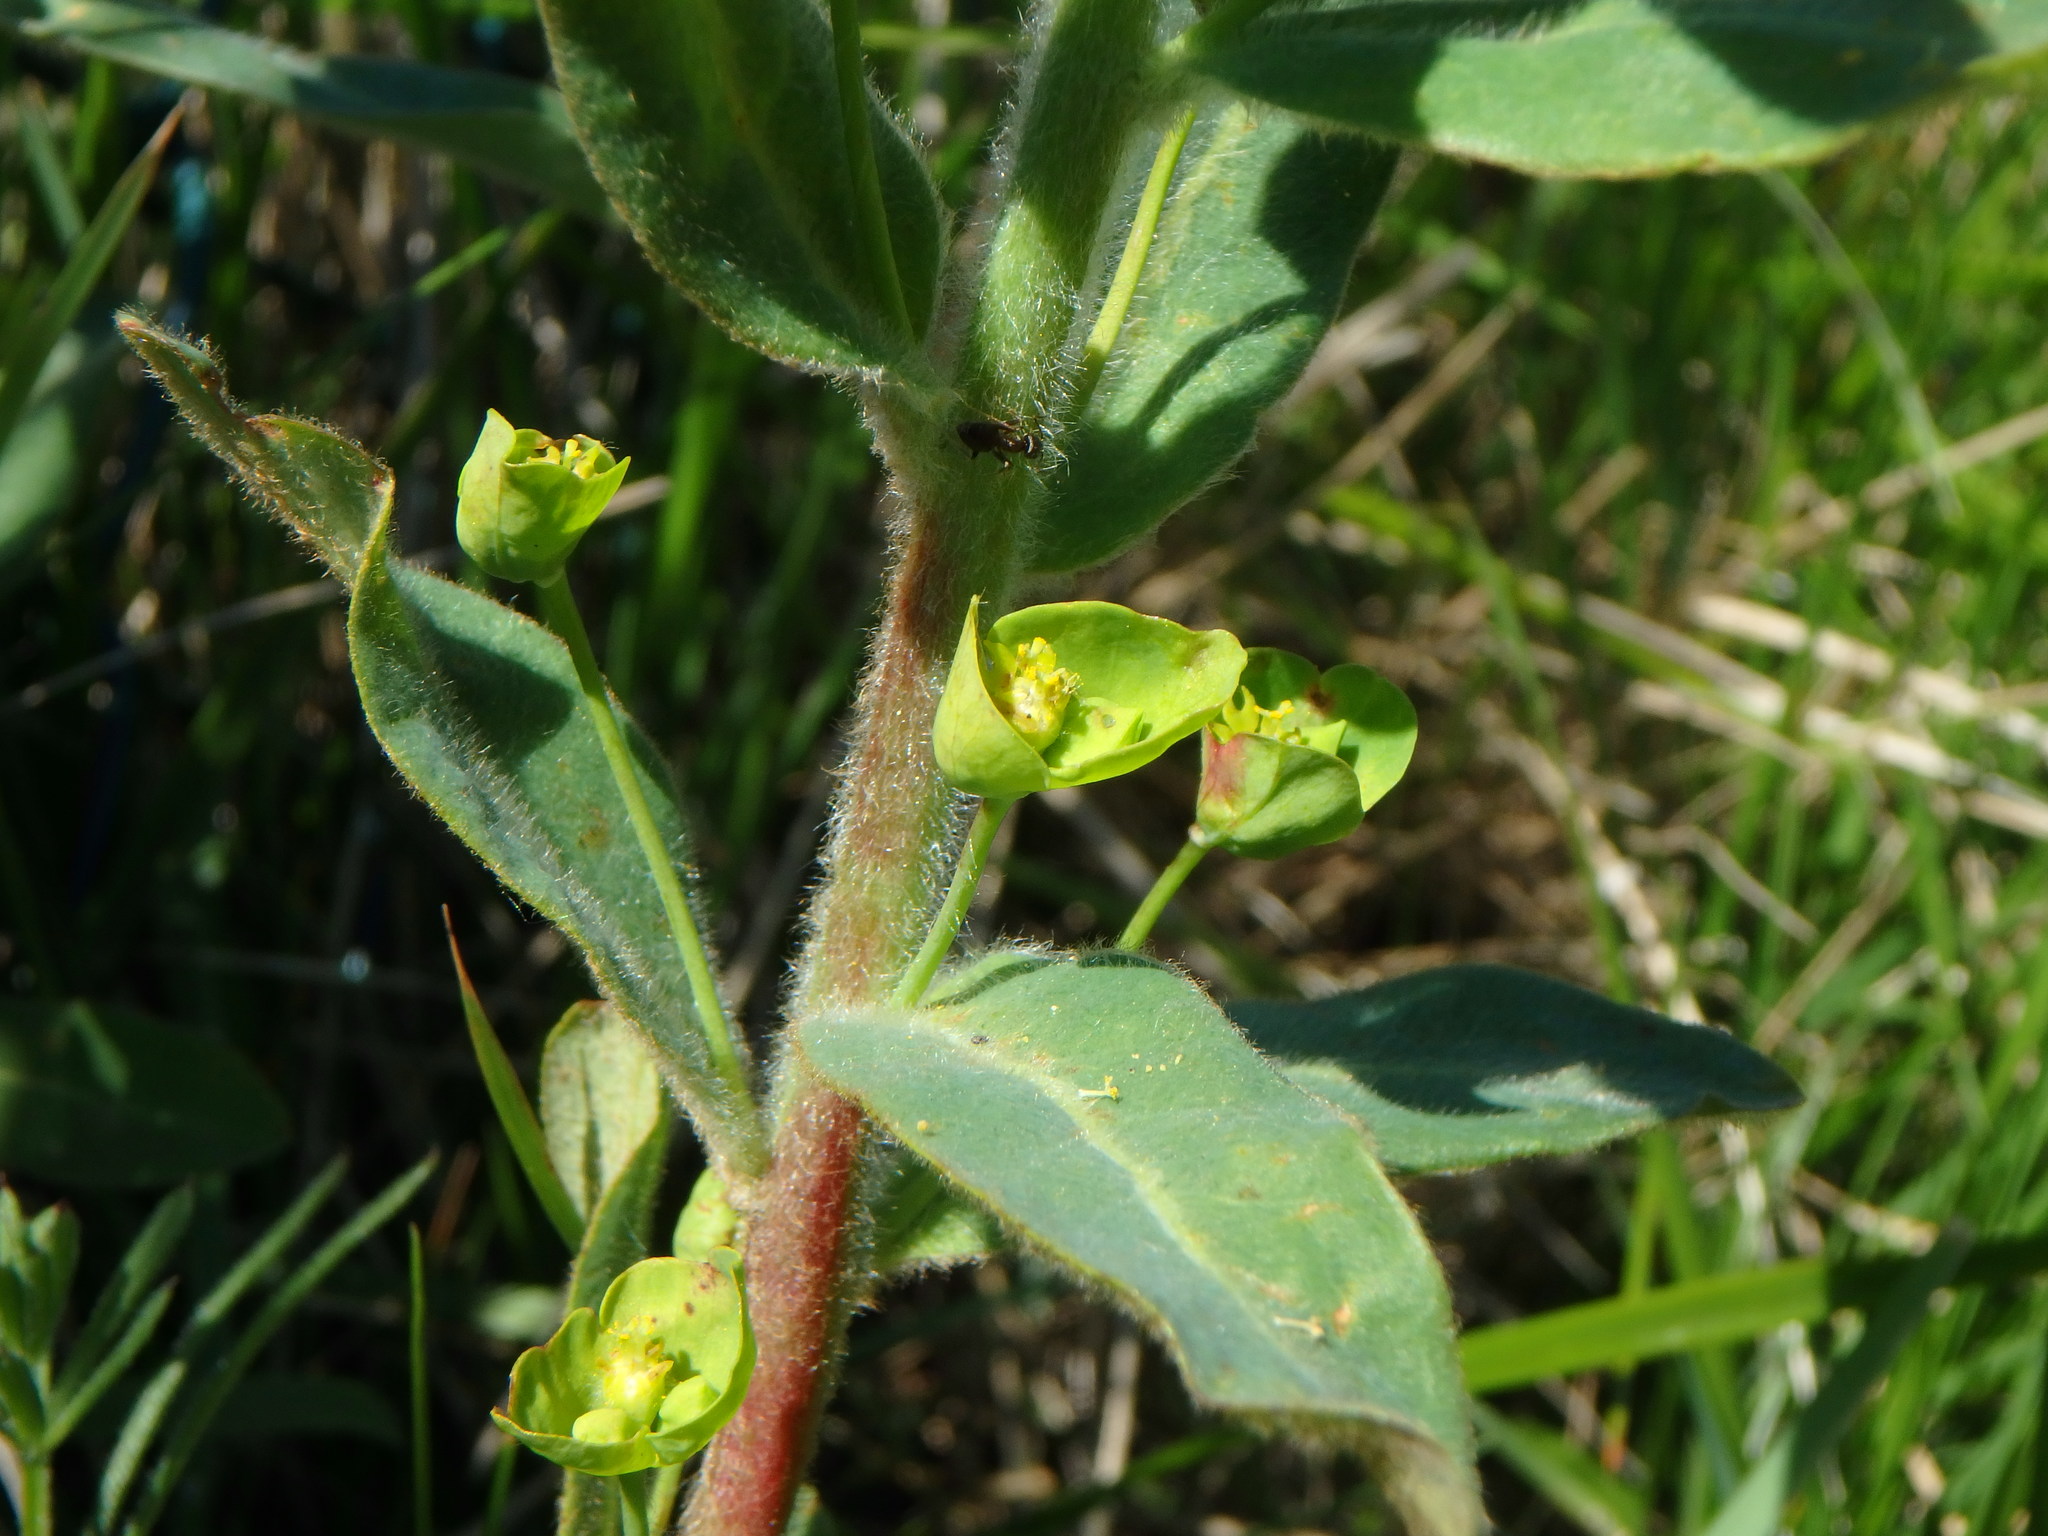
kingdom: Plantae
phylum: Tracheophyta
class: Magnoliopsida
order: Malpighiales
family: Euphorbiaceae
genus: Euphorbia
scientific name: Euphorbia amygdaloides
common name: Wood spurge
